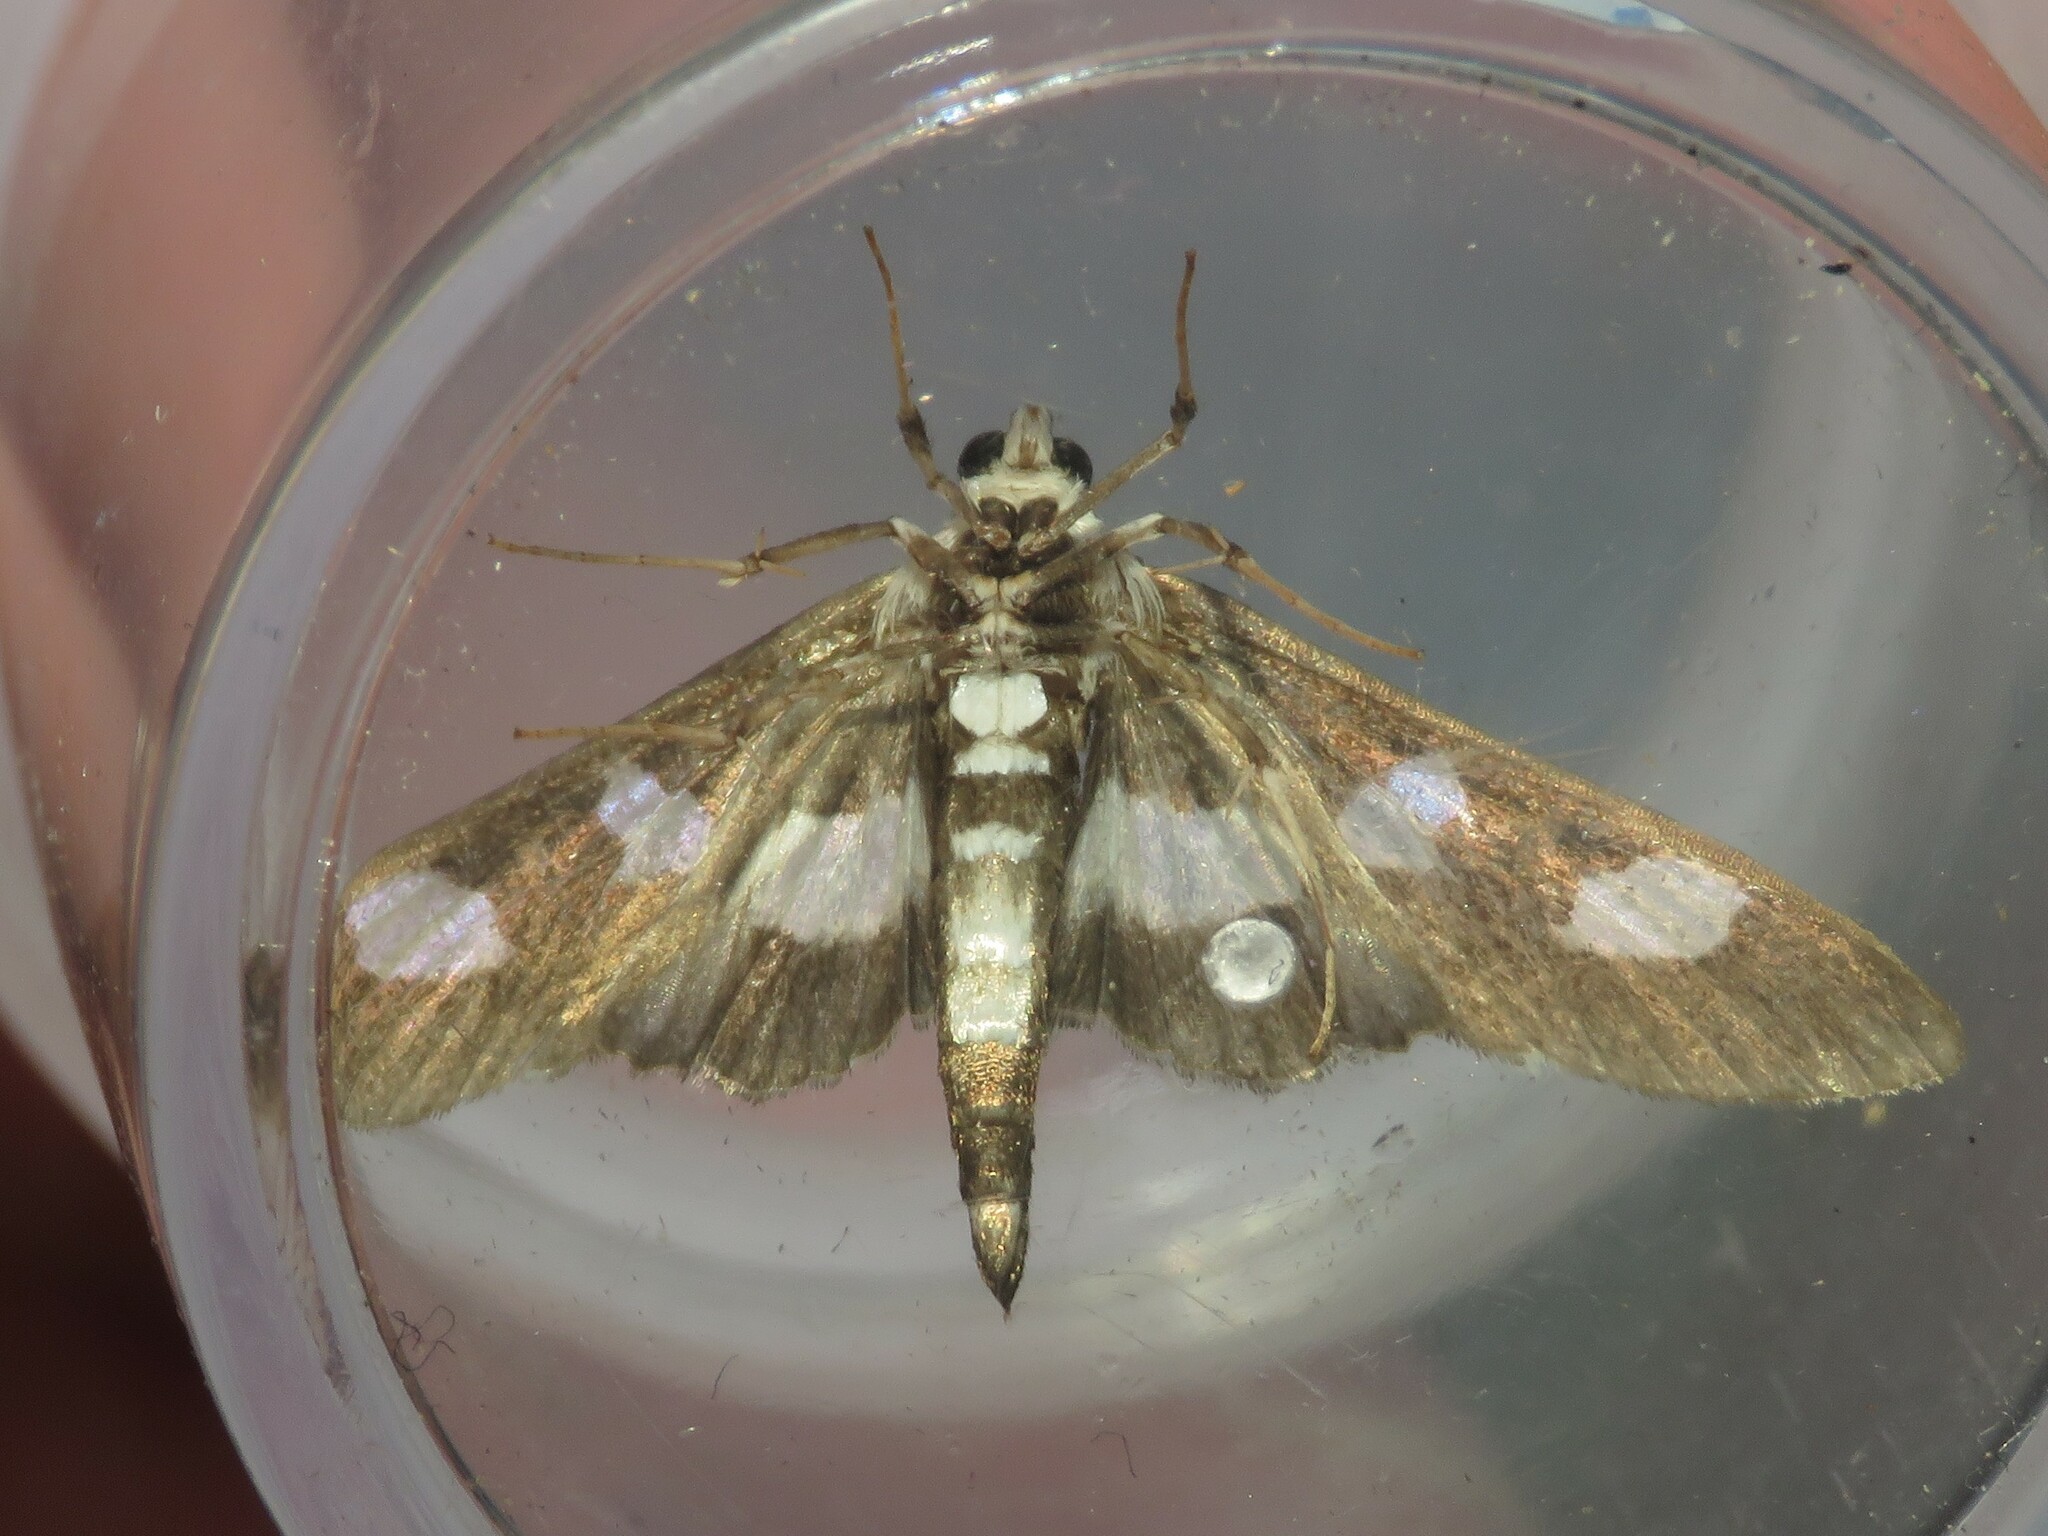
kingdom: Animalia
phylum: Arthropoda
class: Insecta
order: Lepidoptera
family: Crambidae
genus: Desmia
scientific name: Desmia funeralis
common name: Grape leaf folder moth
